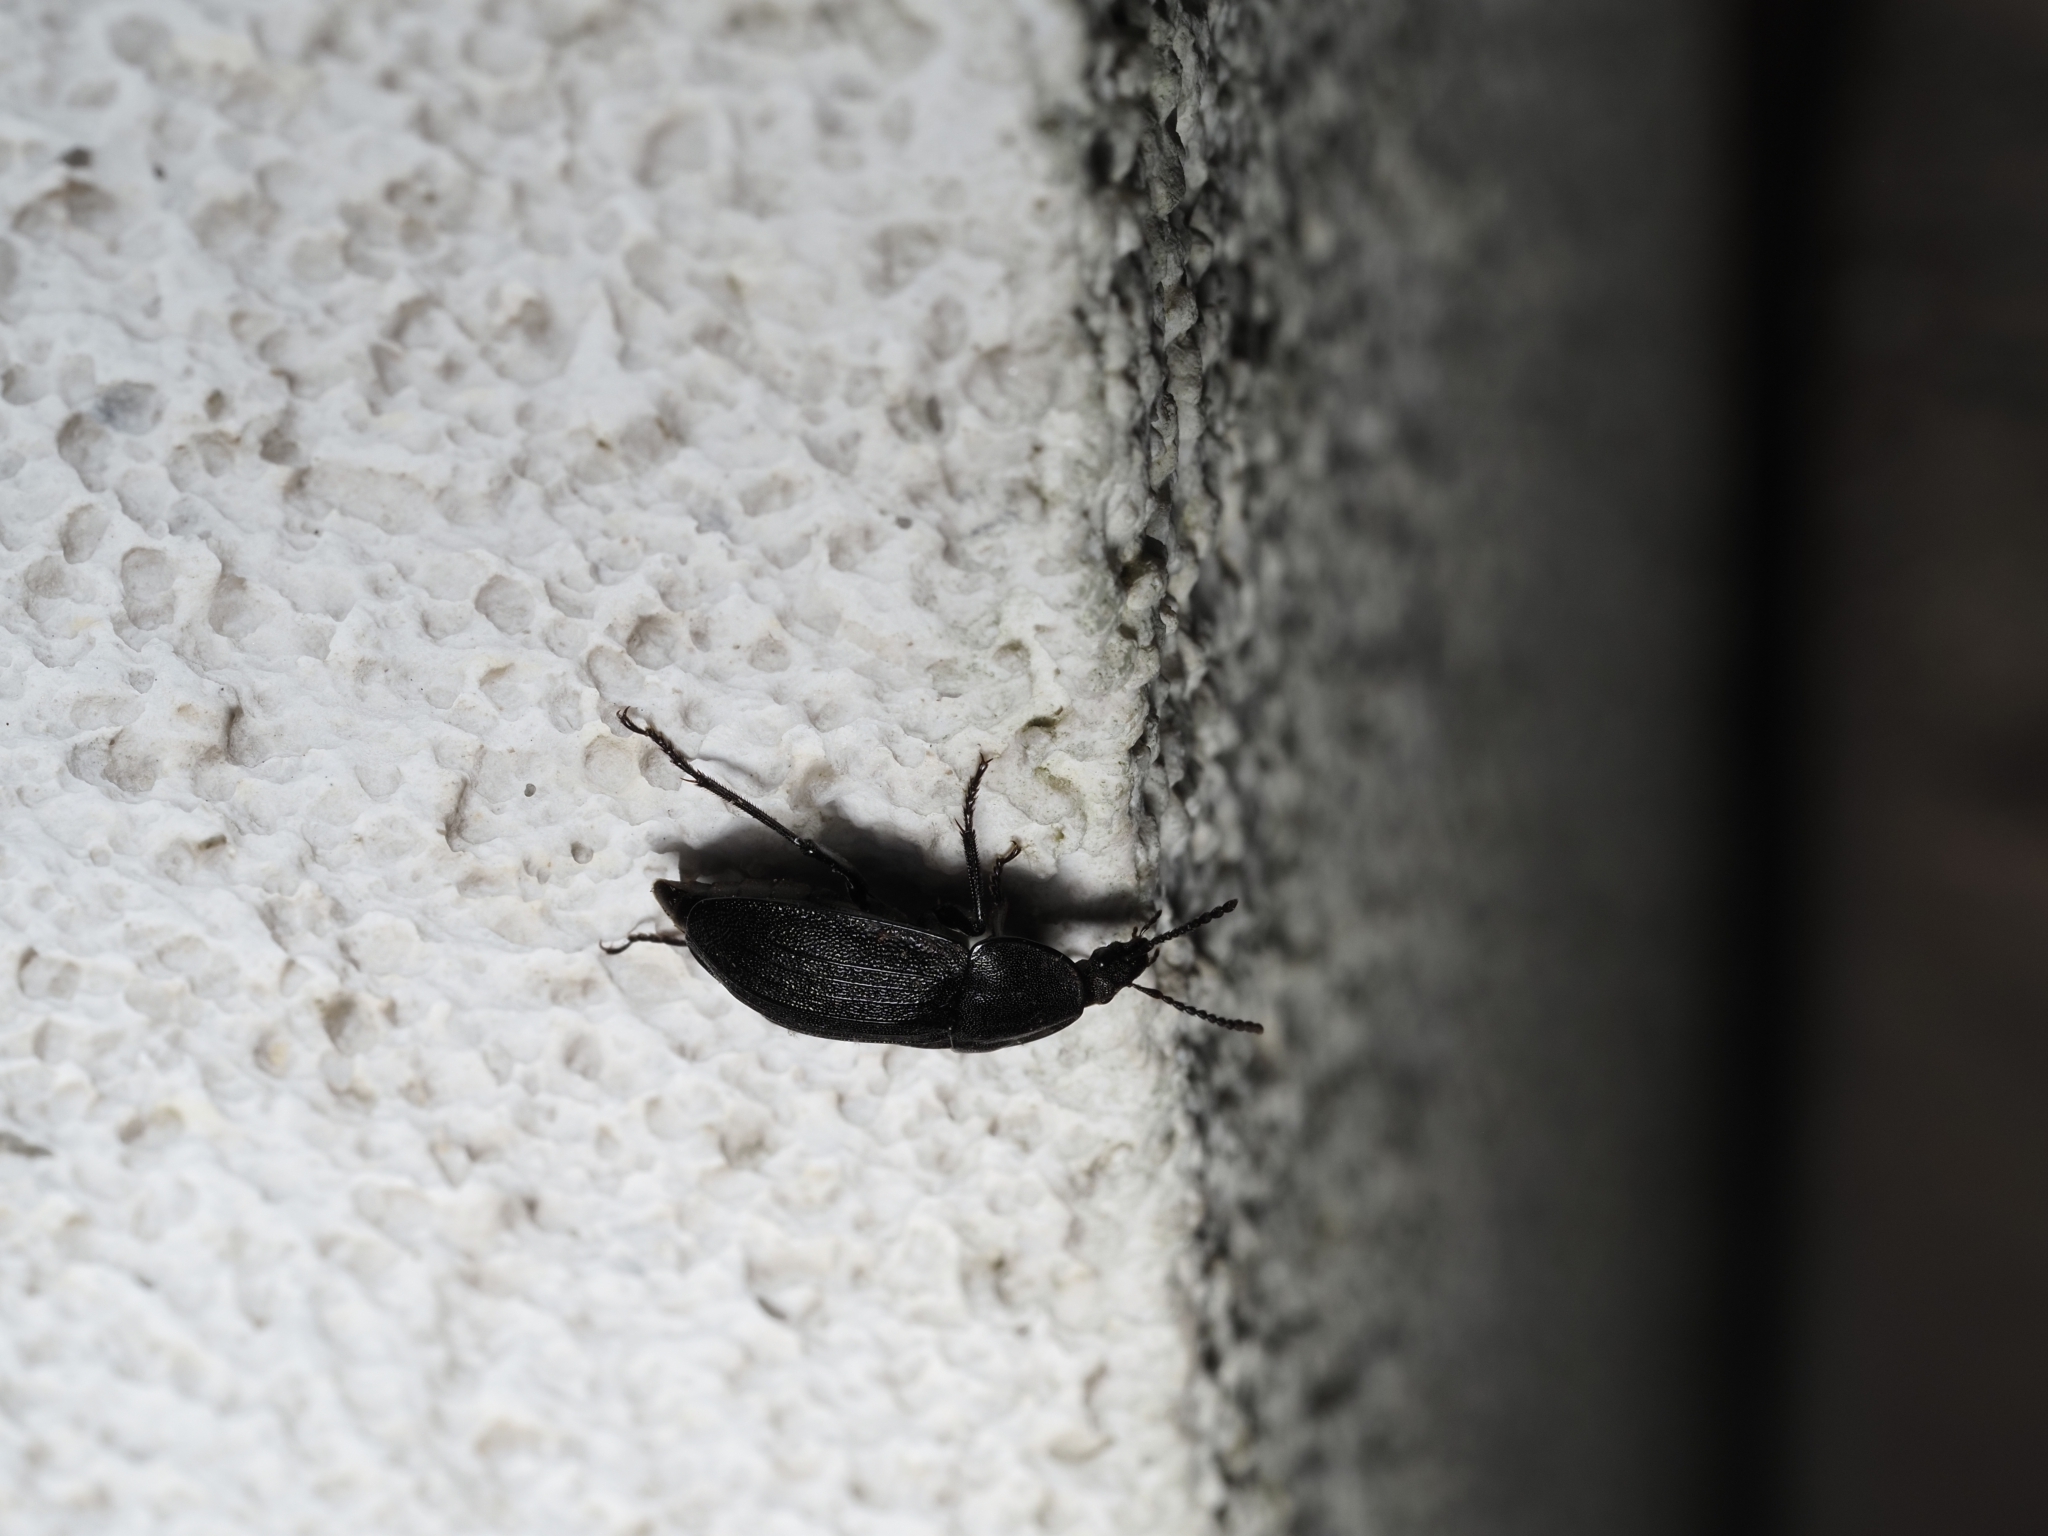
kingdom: Animalia
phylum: Arthropoda
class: Insecta
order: Coleoptera
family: Staphylinidae
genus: Silpha
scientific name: Silpha atrata
